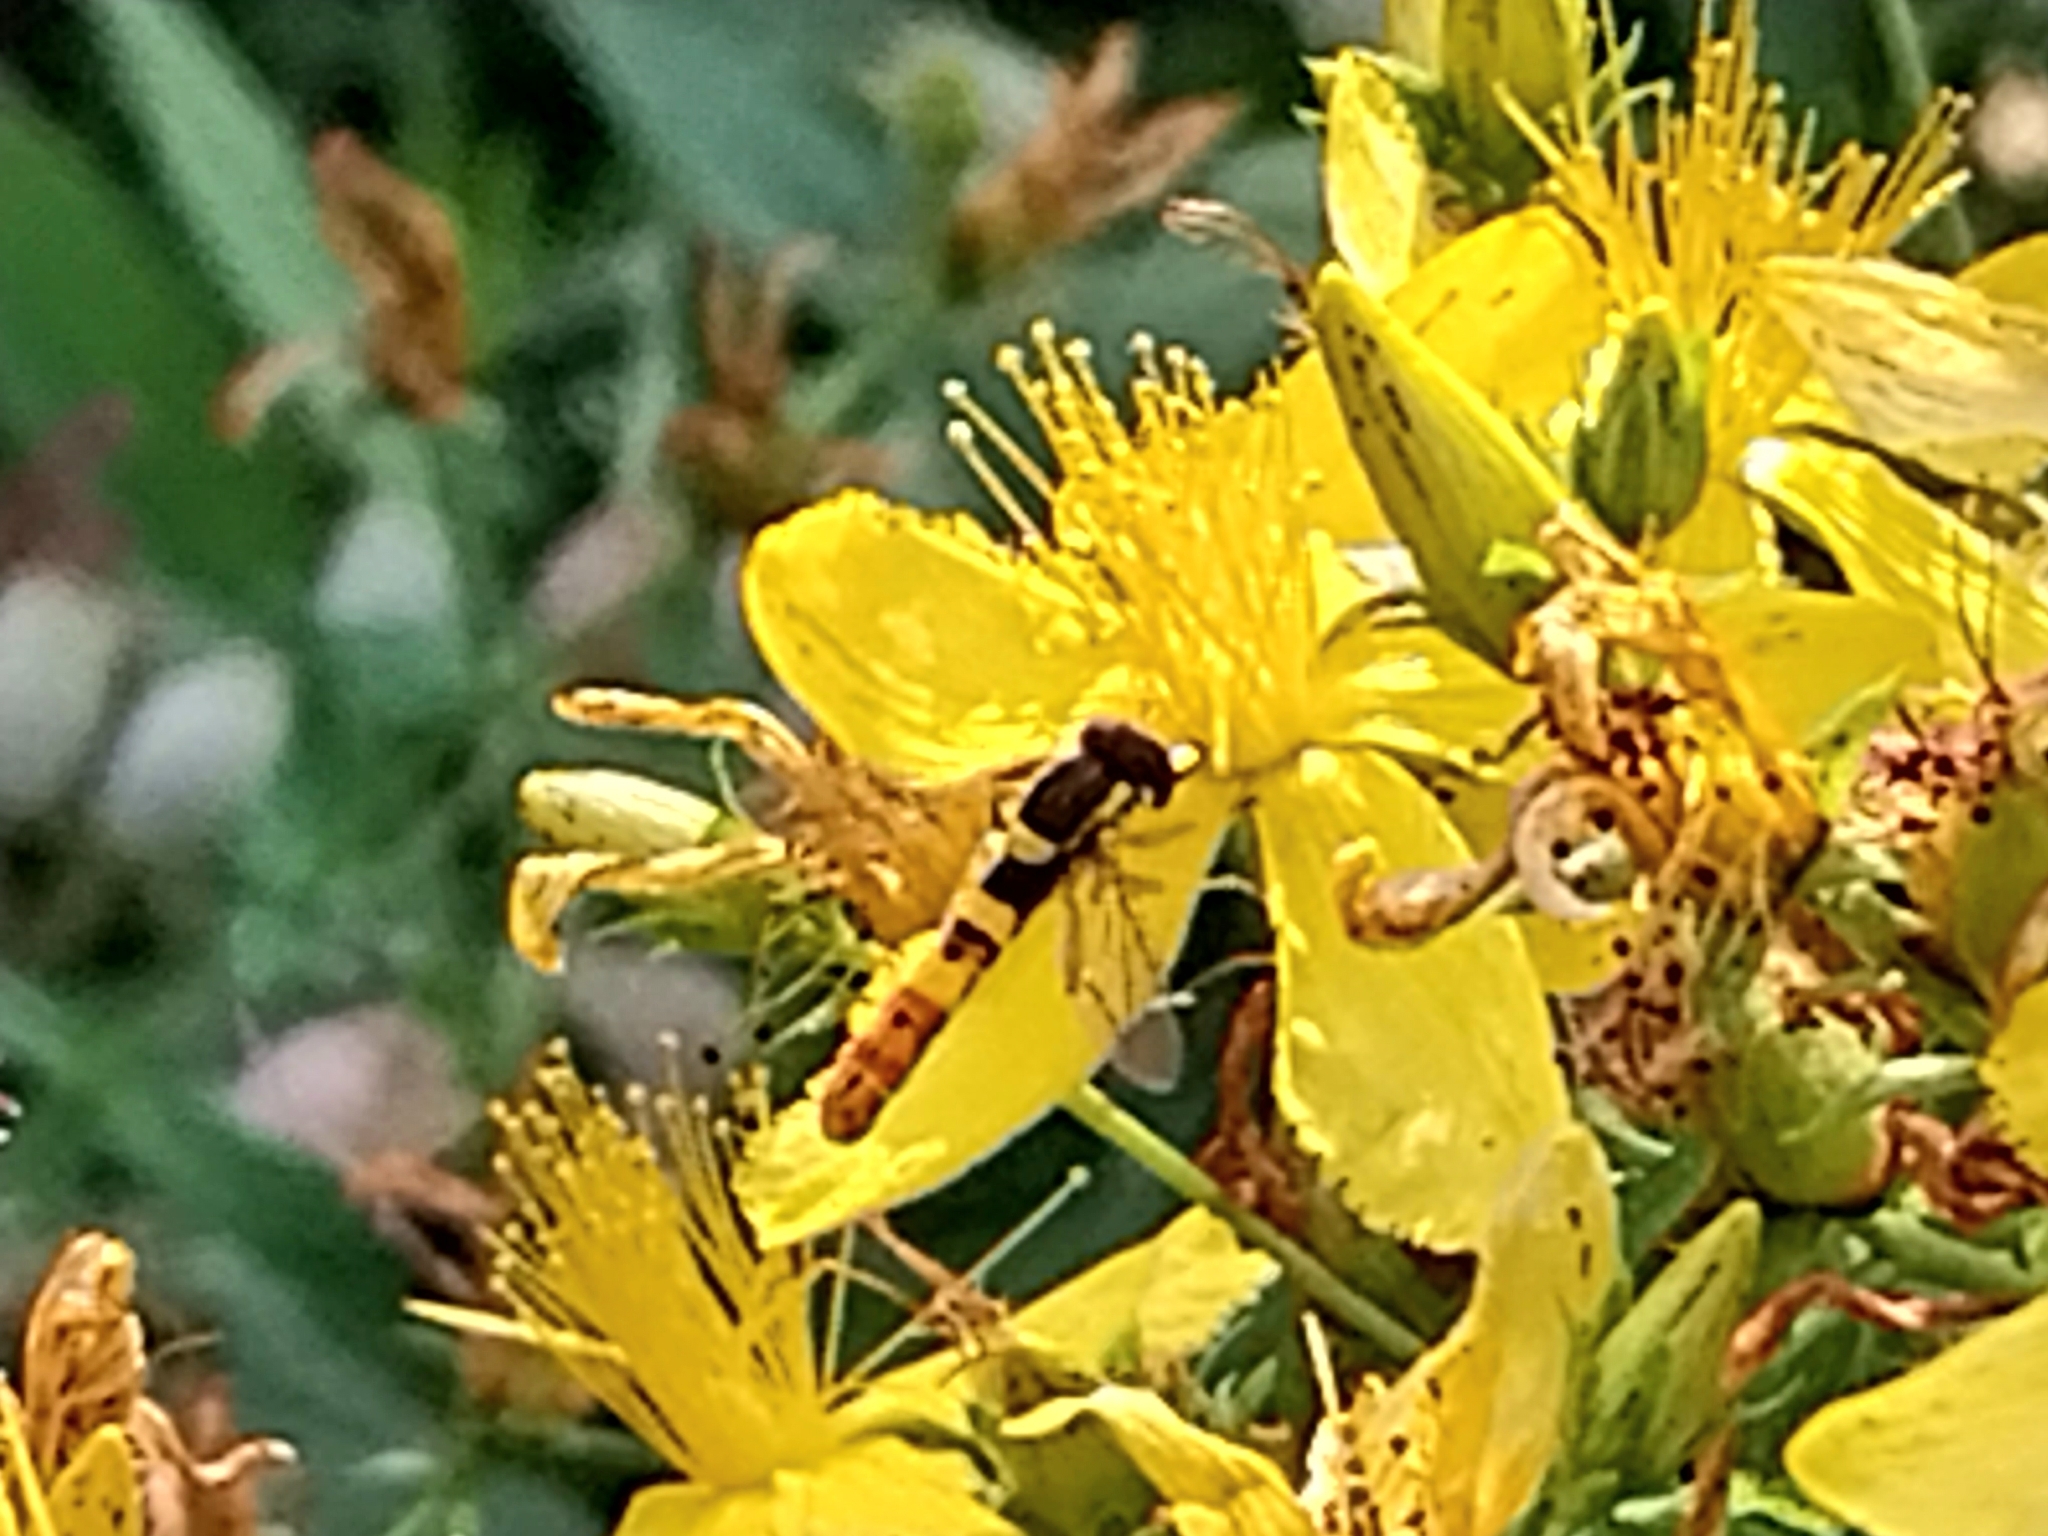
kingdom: Animalia
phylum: Arthropoda
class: Insecta
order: Diptera
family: Syrphidae
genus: Sphaerophoria
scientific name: Sphaerophoria scripta
